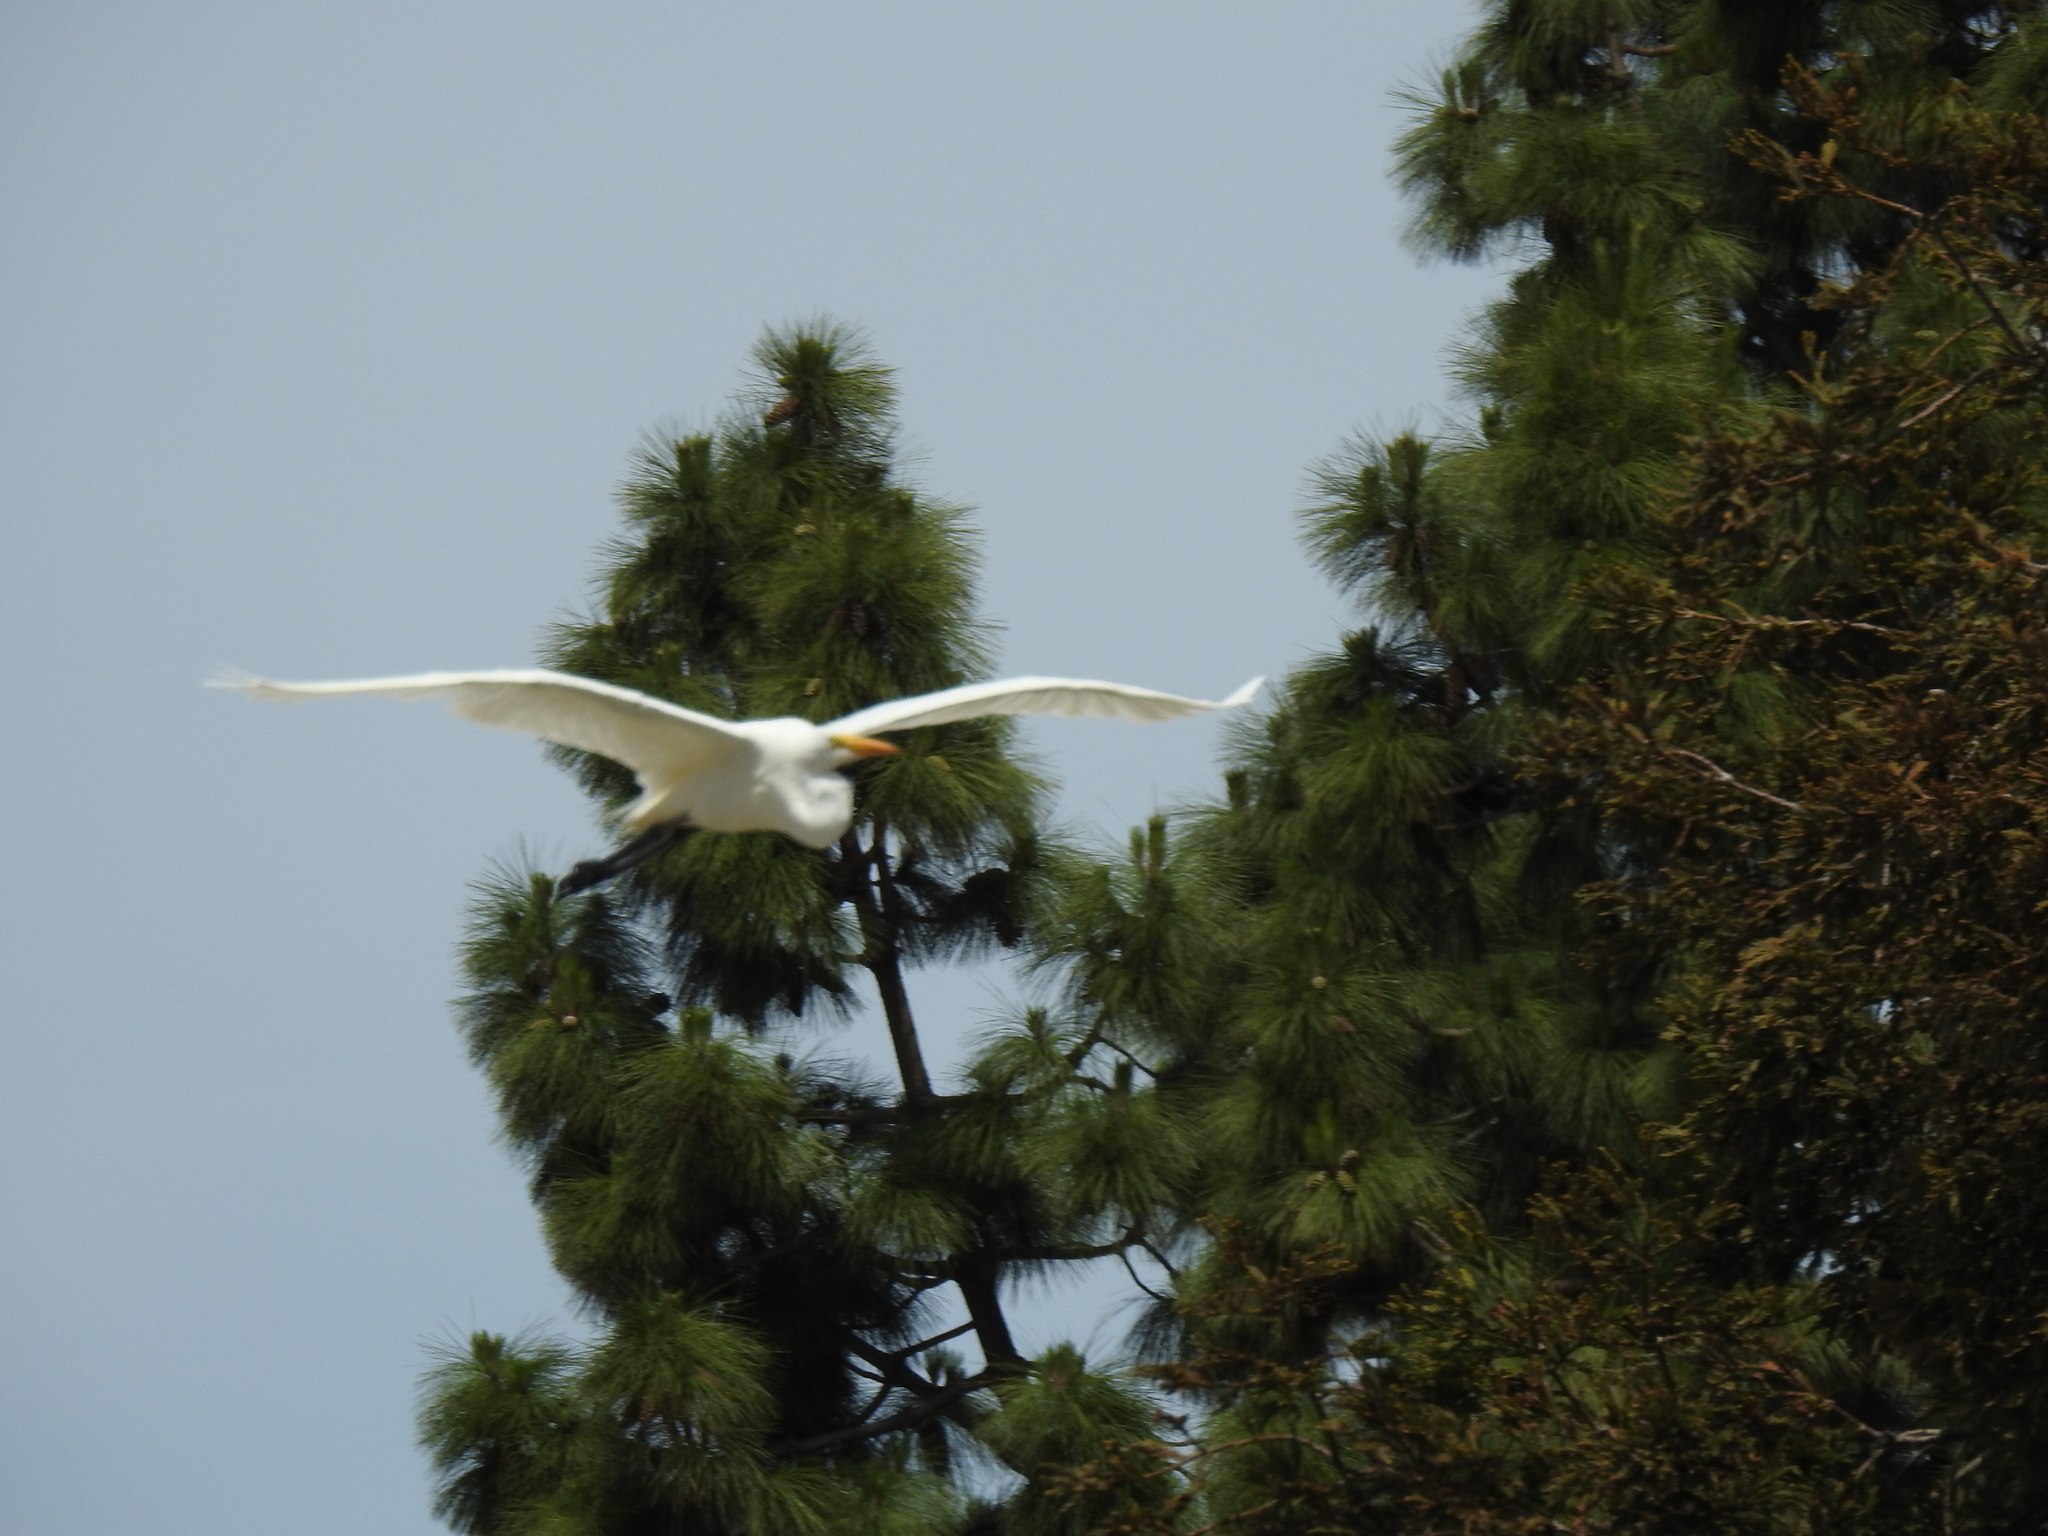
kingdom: Animalia
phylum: Chordata
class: Aves
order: Pelecaniformes
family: Ardeidae
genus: Ardea
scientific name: Ardea alba
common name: Great egret
